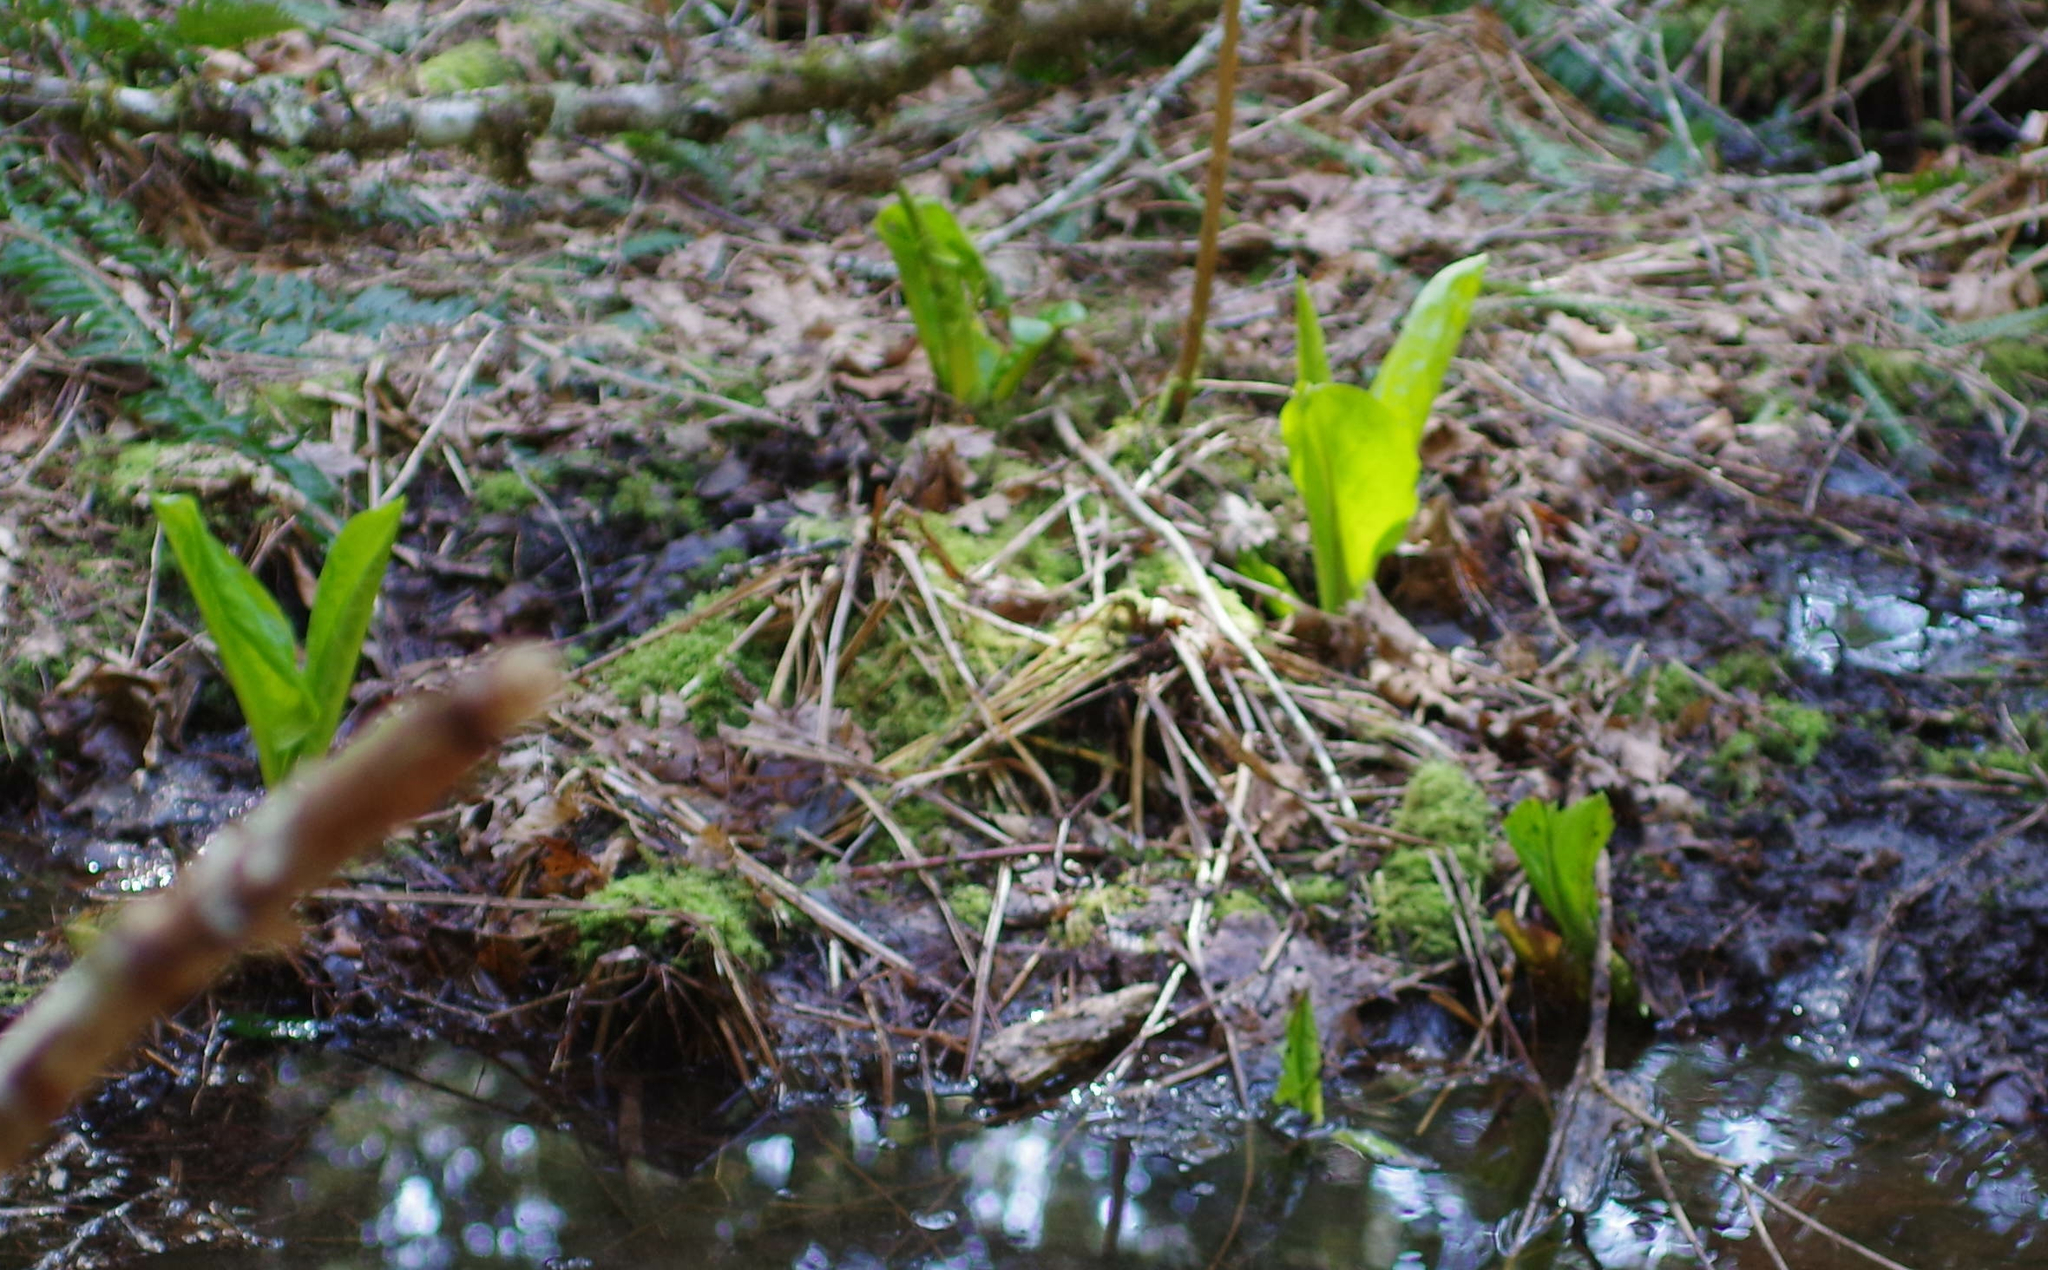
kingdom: Plantae
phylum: Tracheophyta
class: Liliopsida
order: Alismatales
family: Araceae
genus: Lysichiton
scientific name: Lysichiton americanus
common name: American skunk cabbage
